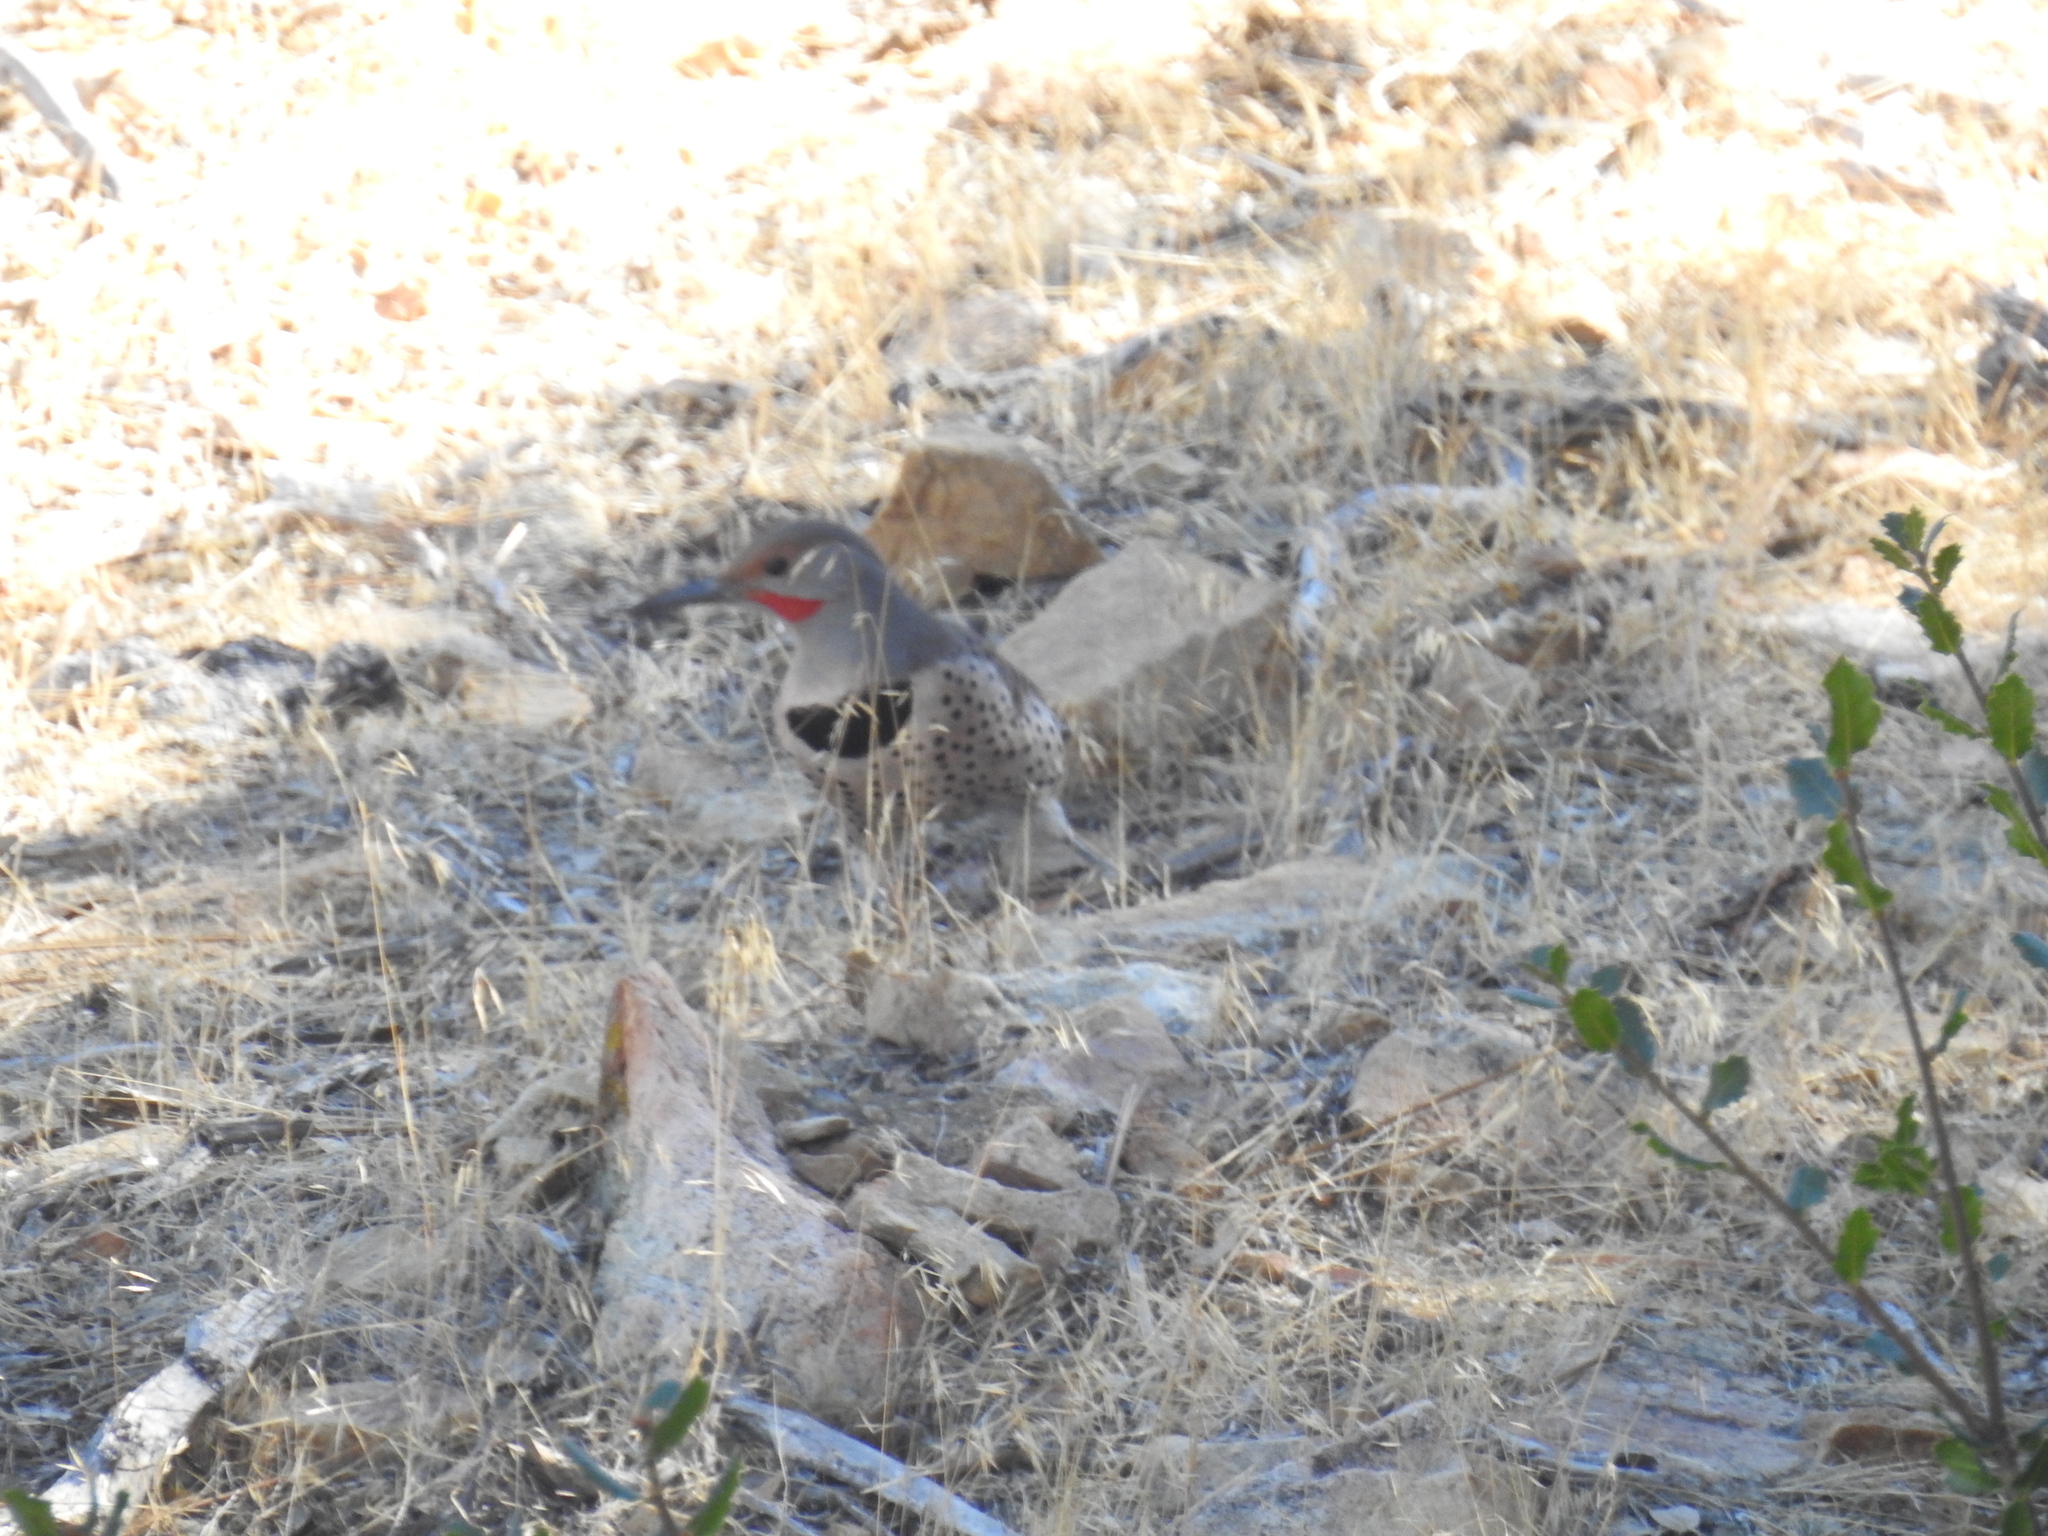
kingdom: Animalia
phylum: Chordata
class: Aves
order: Piciformes
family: Picidae
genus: Colaptes
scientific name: Colaptes auratus
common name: Northern flicker
